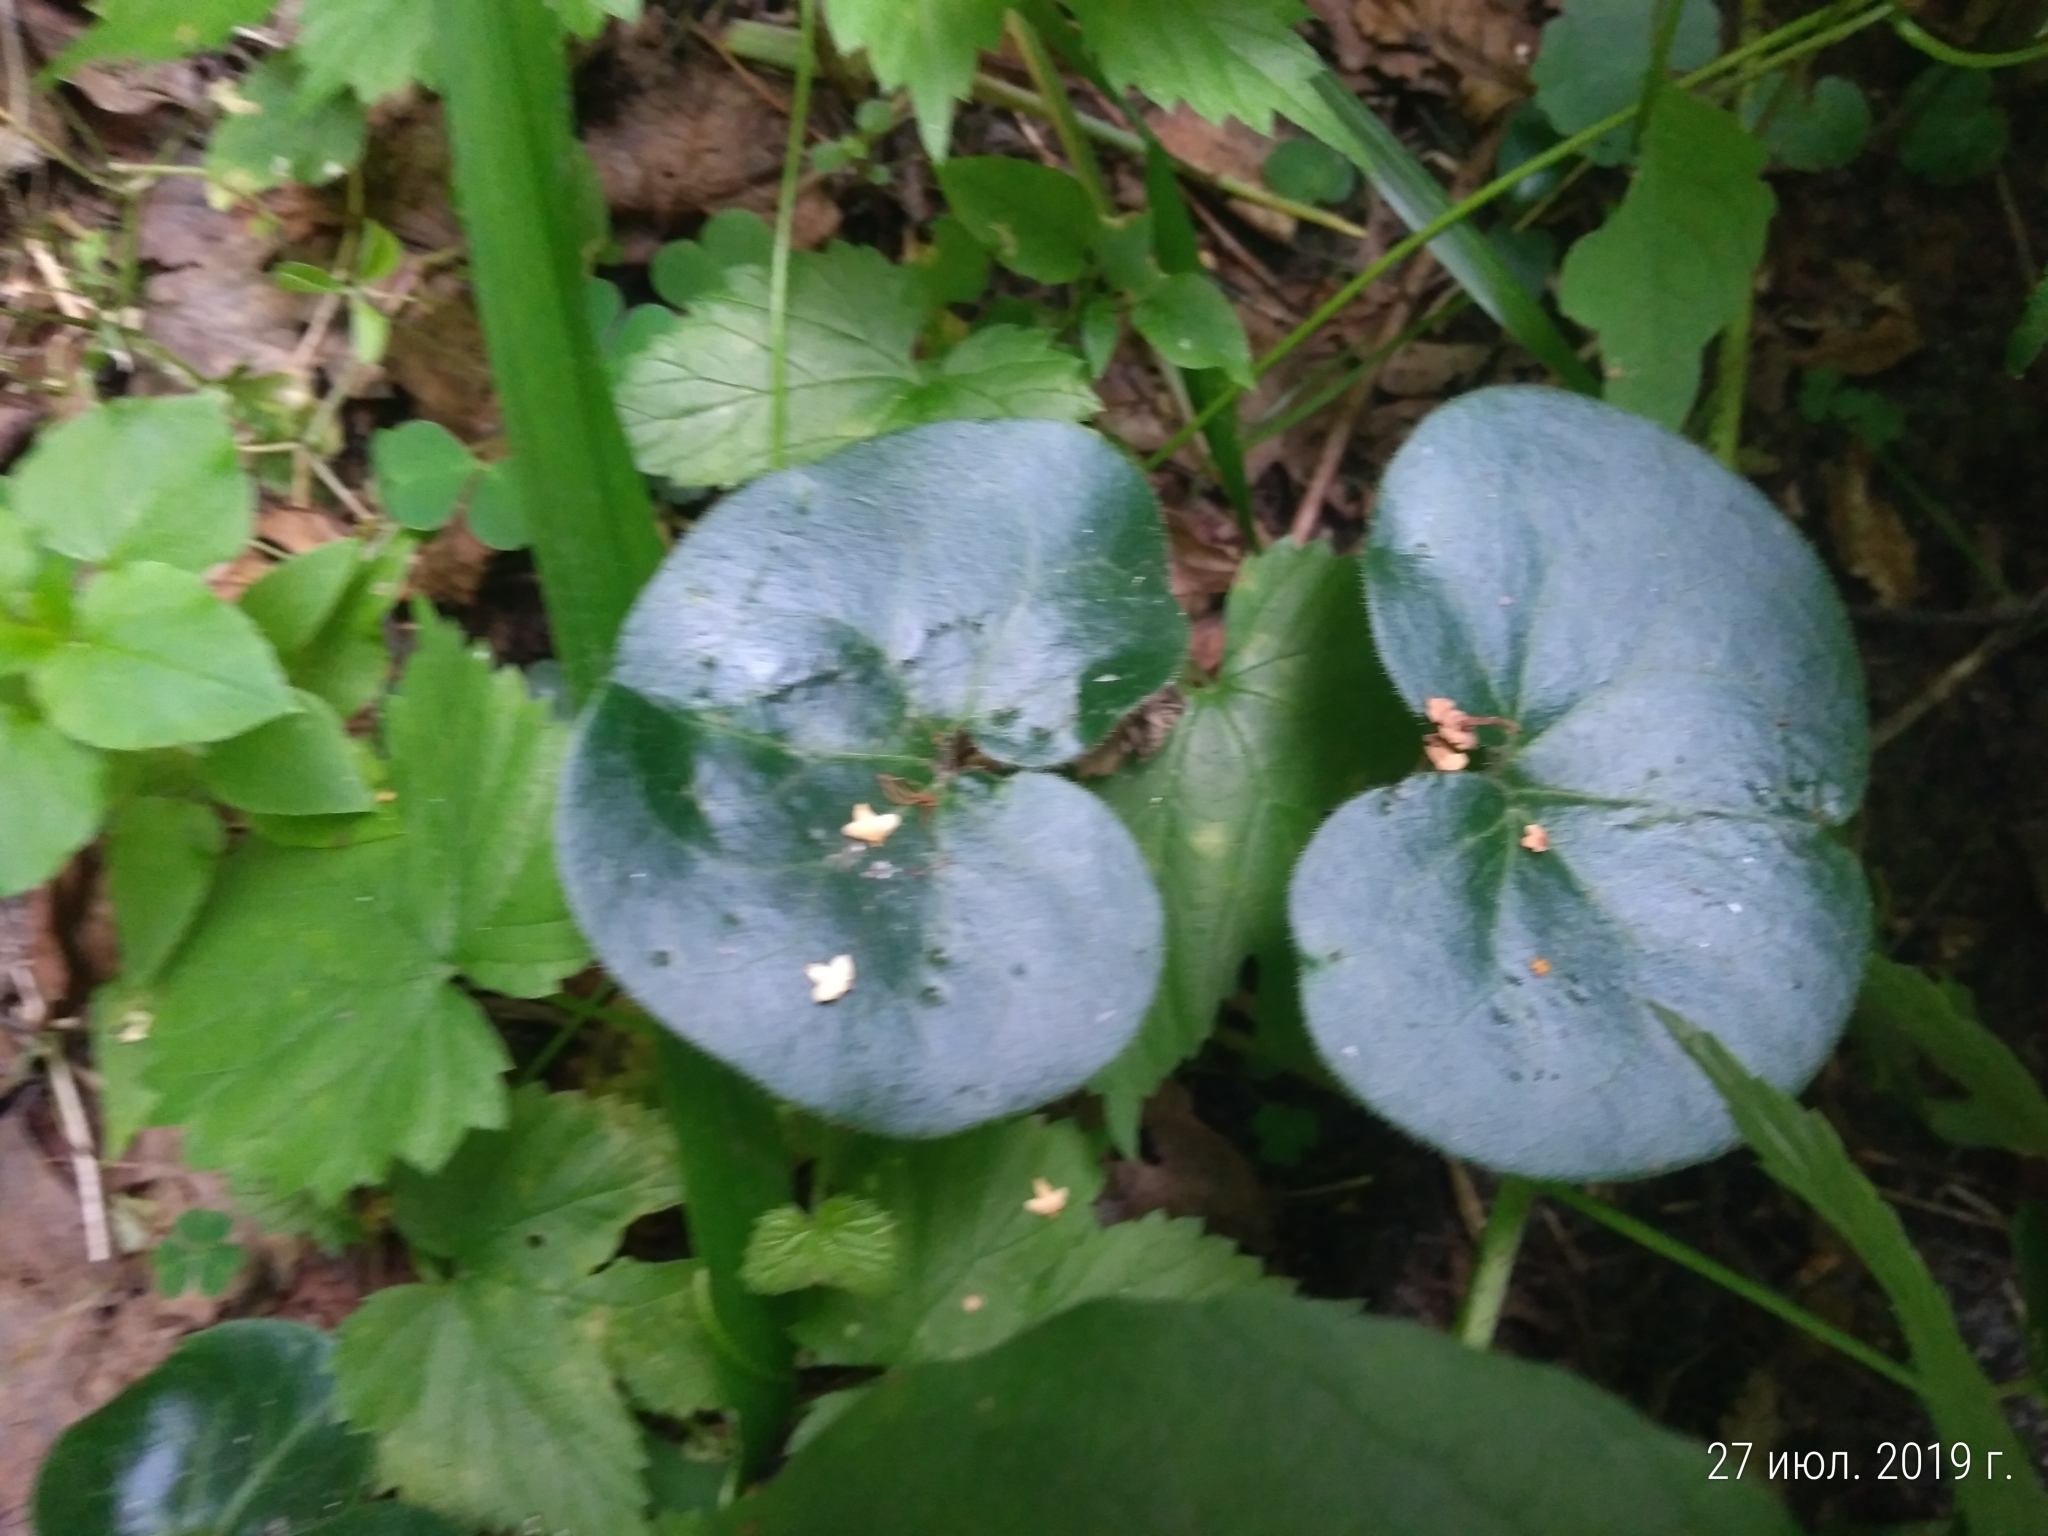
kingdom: Plantae
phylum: Tracheophyta
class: Magnoliopsida
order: Piperales
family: Aristolochiaceae
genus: Asarum
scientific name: Asarum europaeum
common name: Asarabacca
